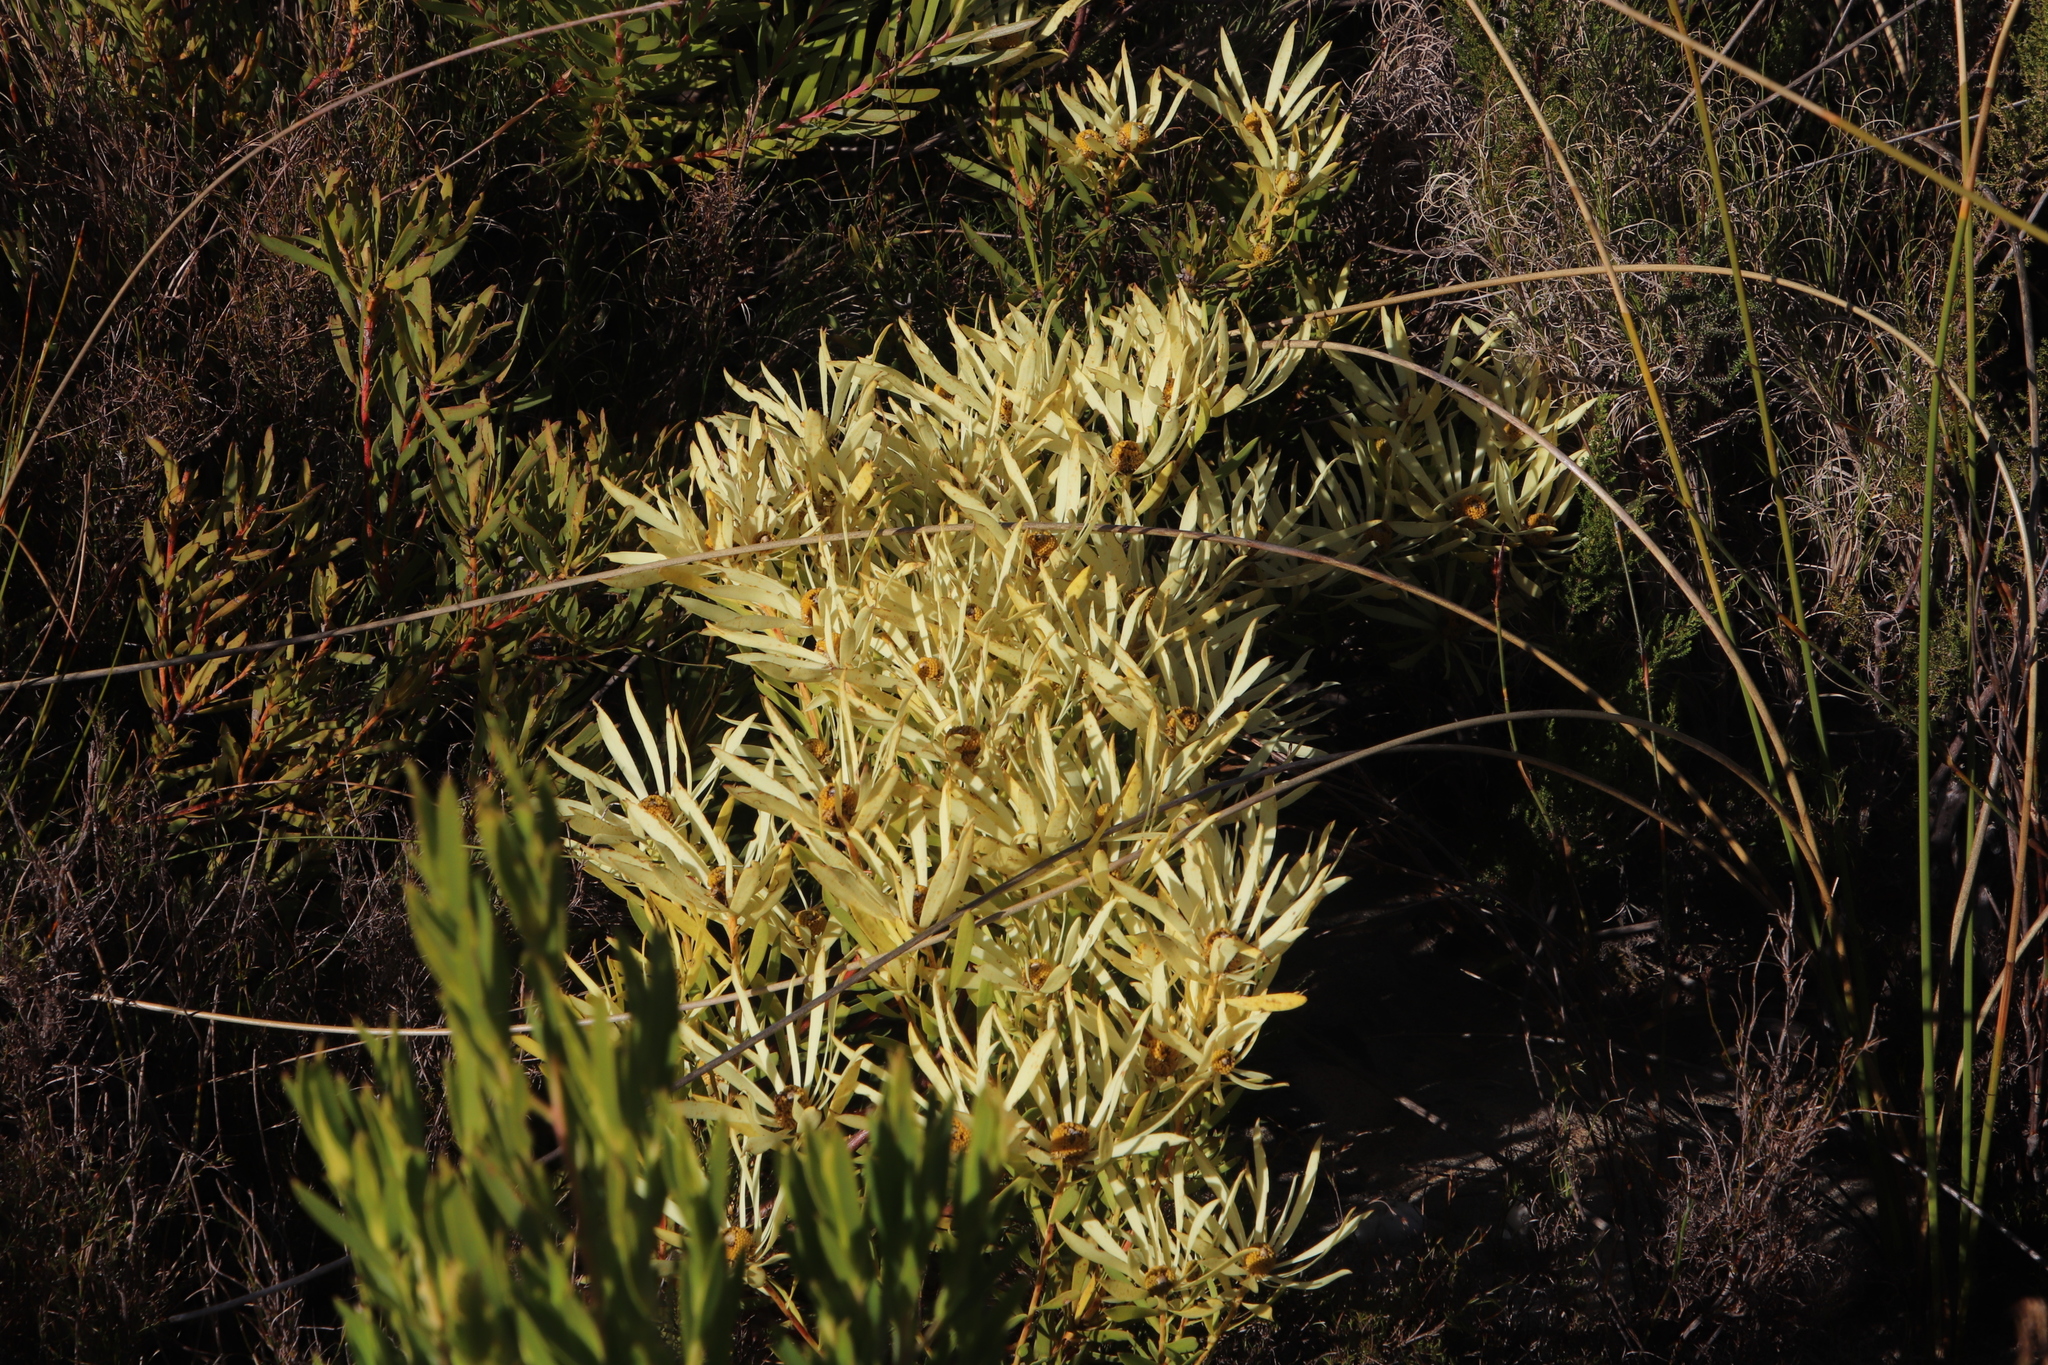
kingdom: Plantae
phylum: Tracheophyta
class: Magnoliopsida
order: Proteales
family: Proteaceae
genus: Leucadendron
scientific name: Leucadendron salignum
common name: Common sunshine conebush
